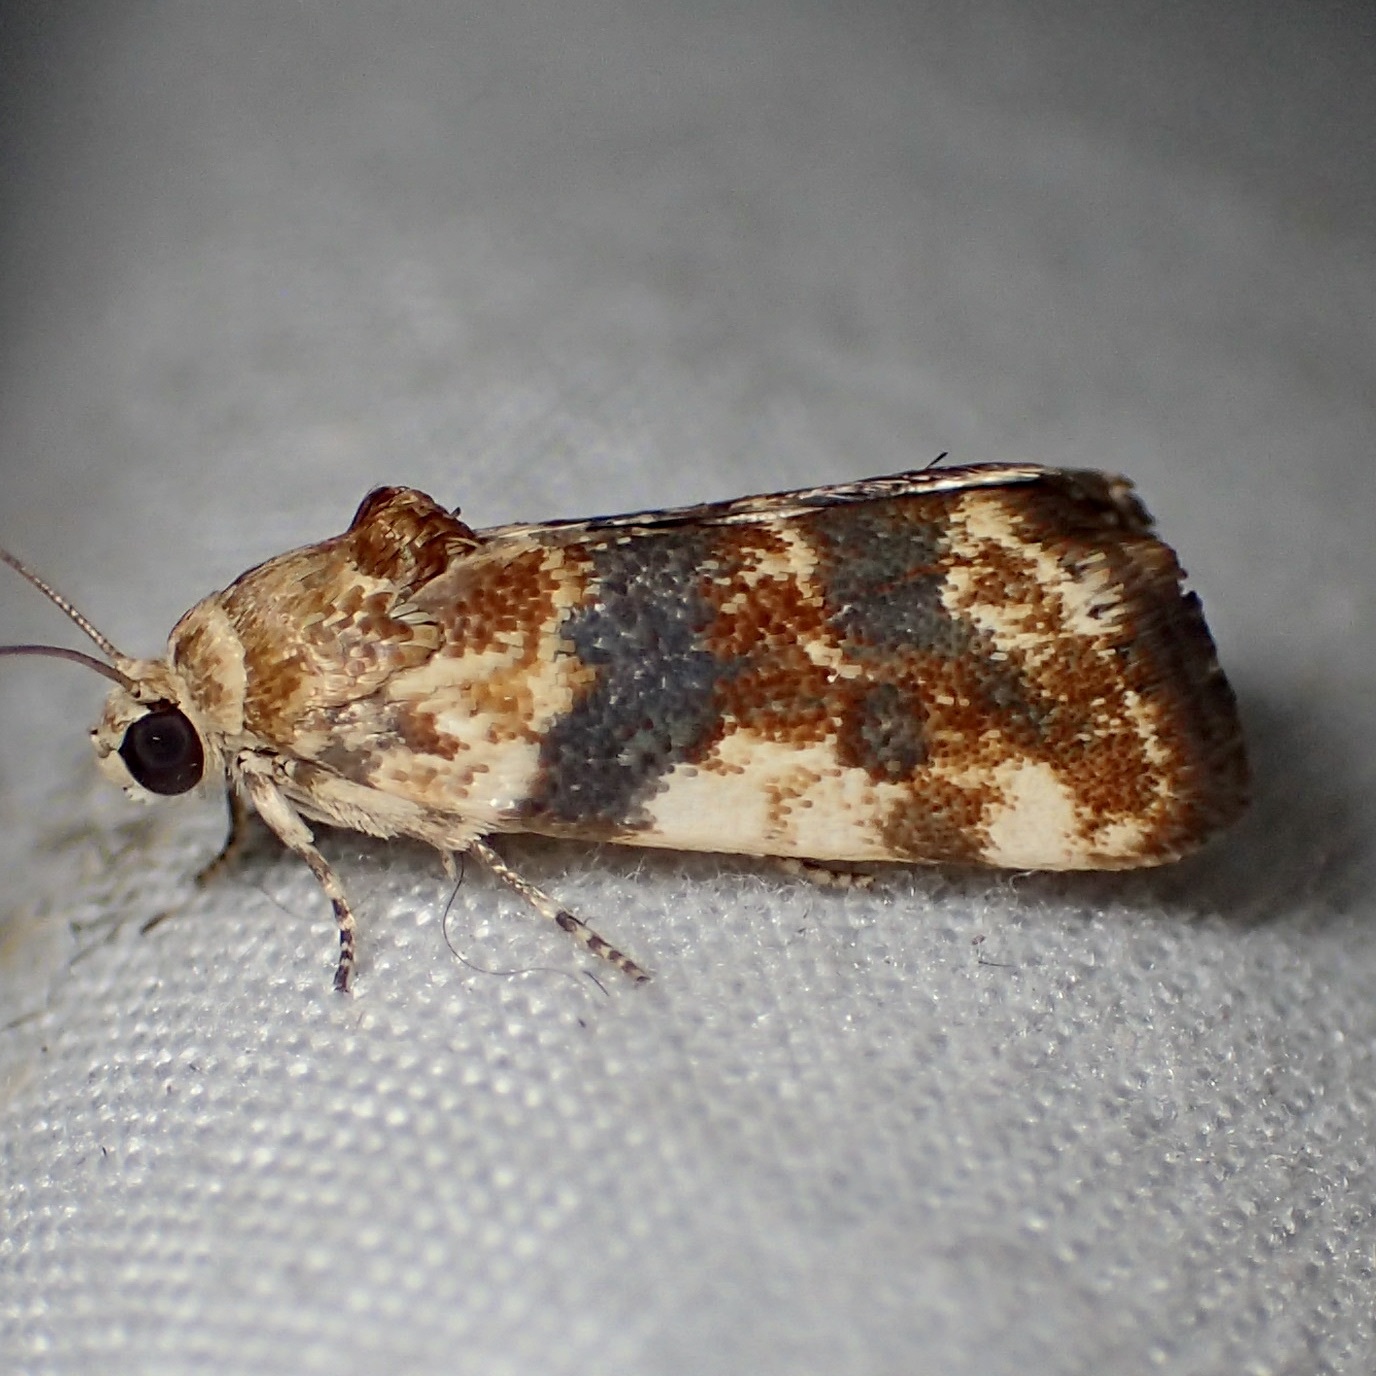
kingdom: Animalia
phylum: Arthropoda
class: Insecta
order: Lepidoptera
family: Noctuidae
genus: Acontia
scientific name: Acontia obatra
